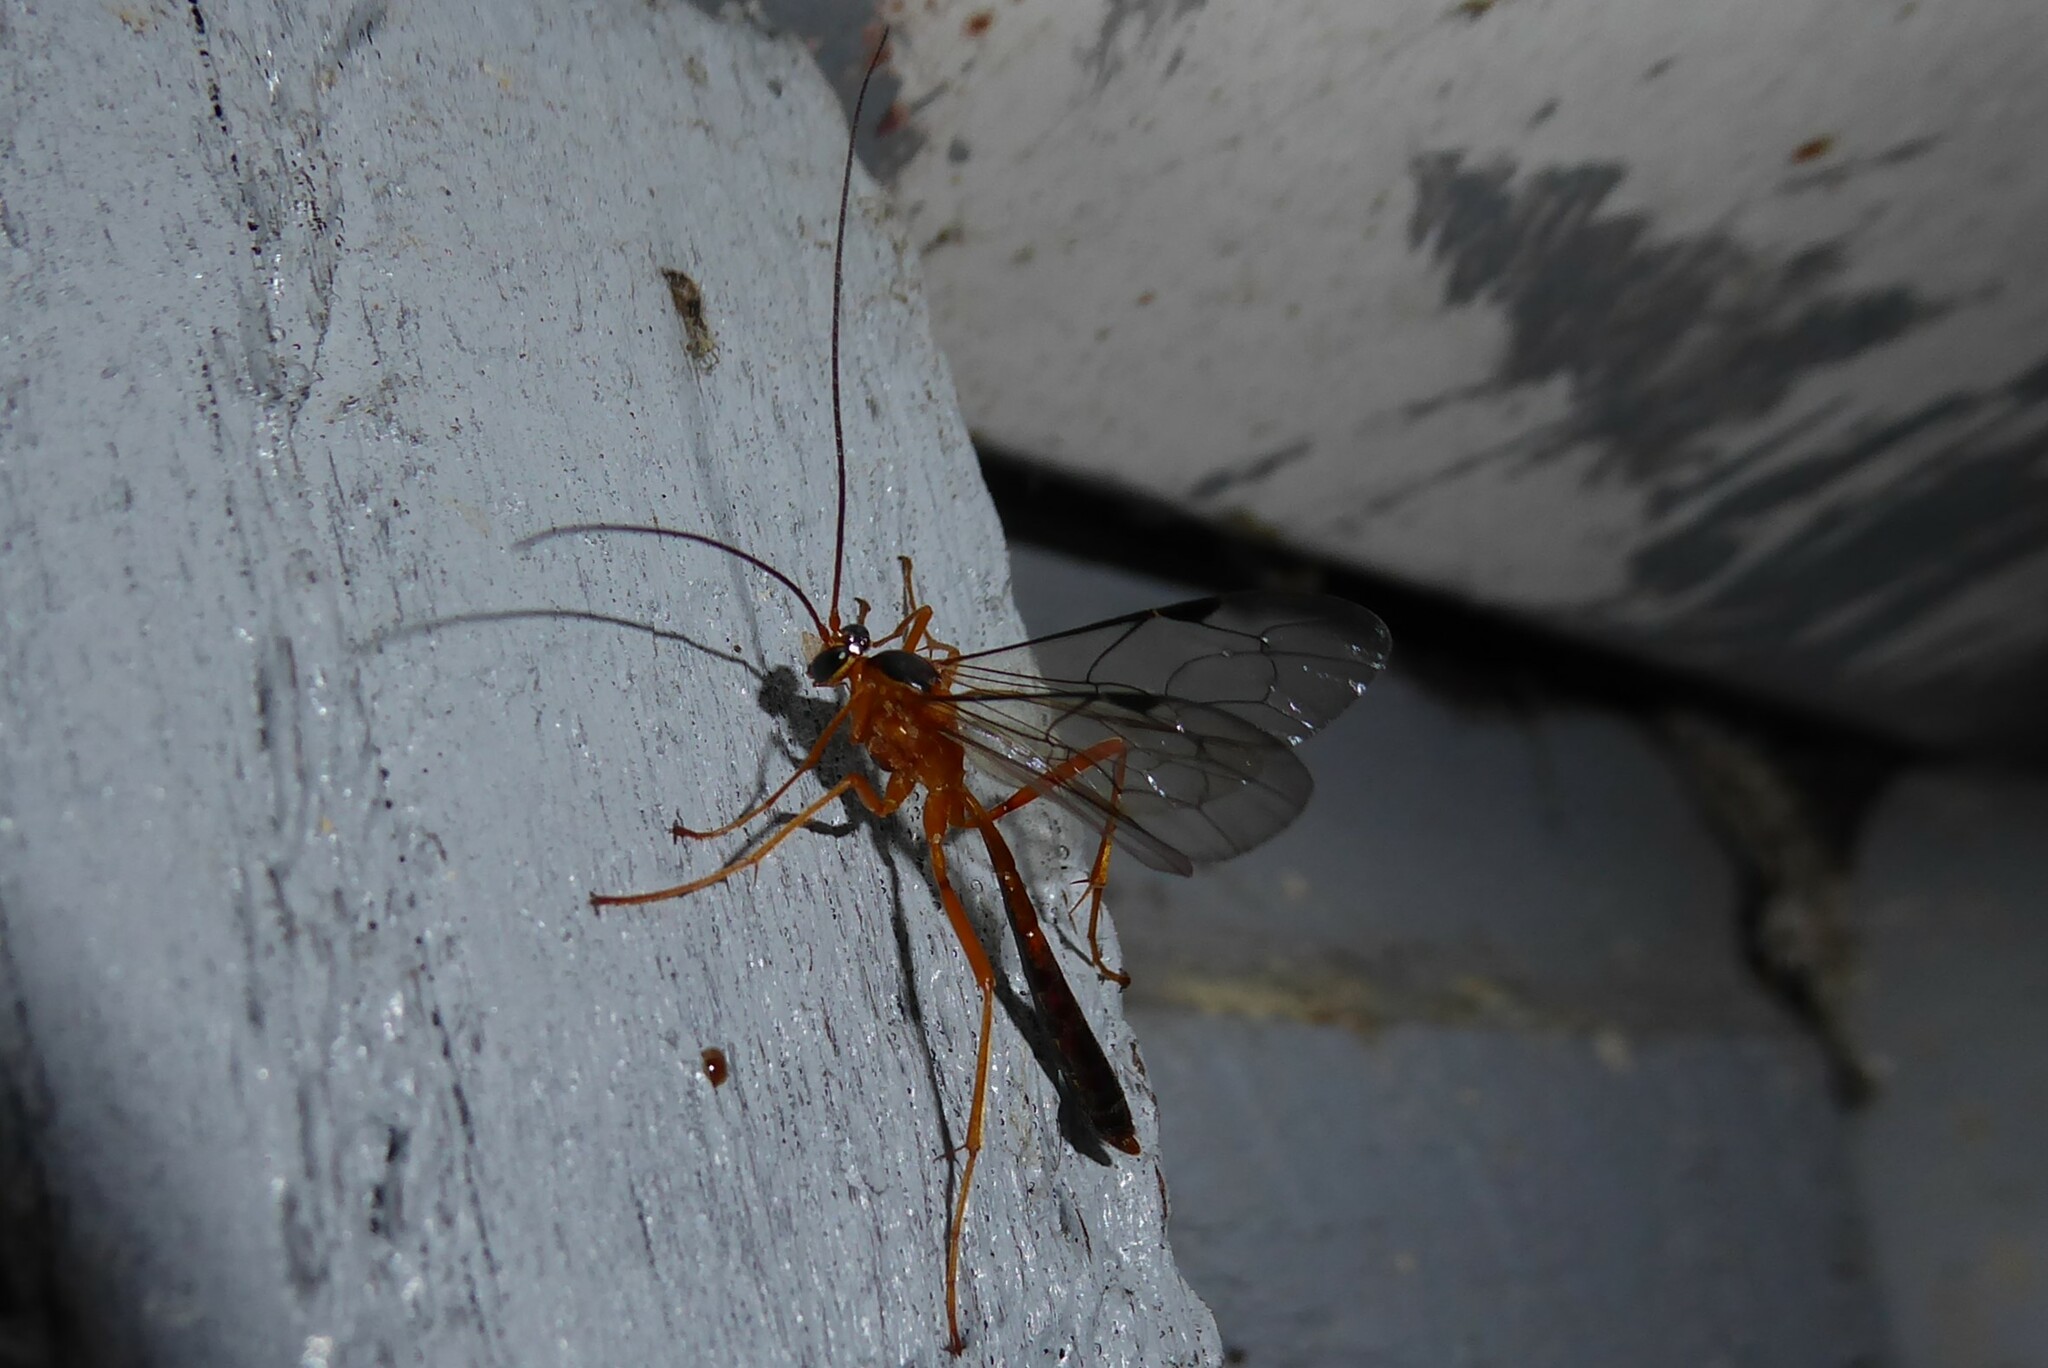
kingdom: Animalia
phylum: Arthropoda
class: Insecta
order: Hymenoptera
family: Ichneumonidae
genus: Netelia
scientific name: Netelia ephippiata
